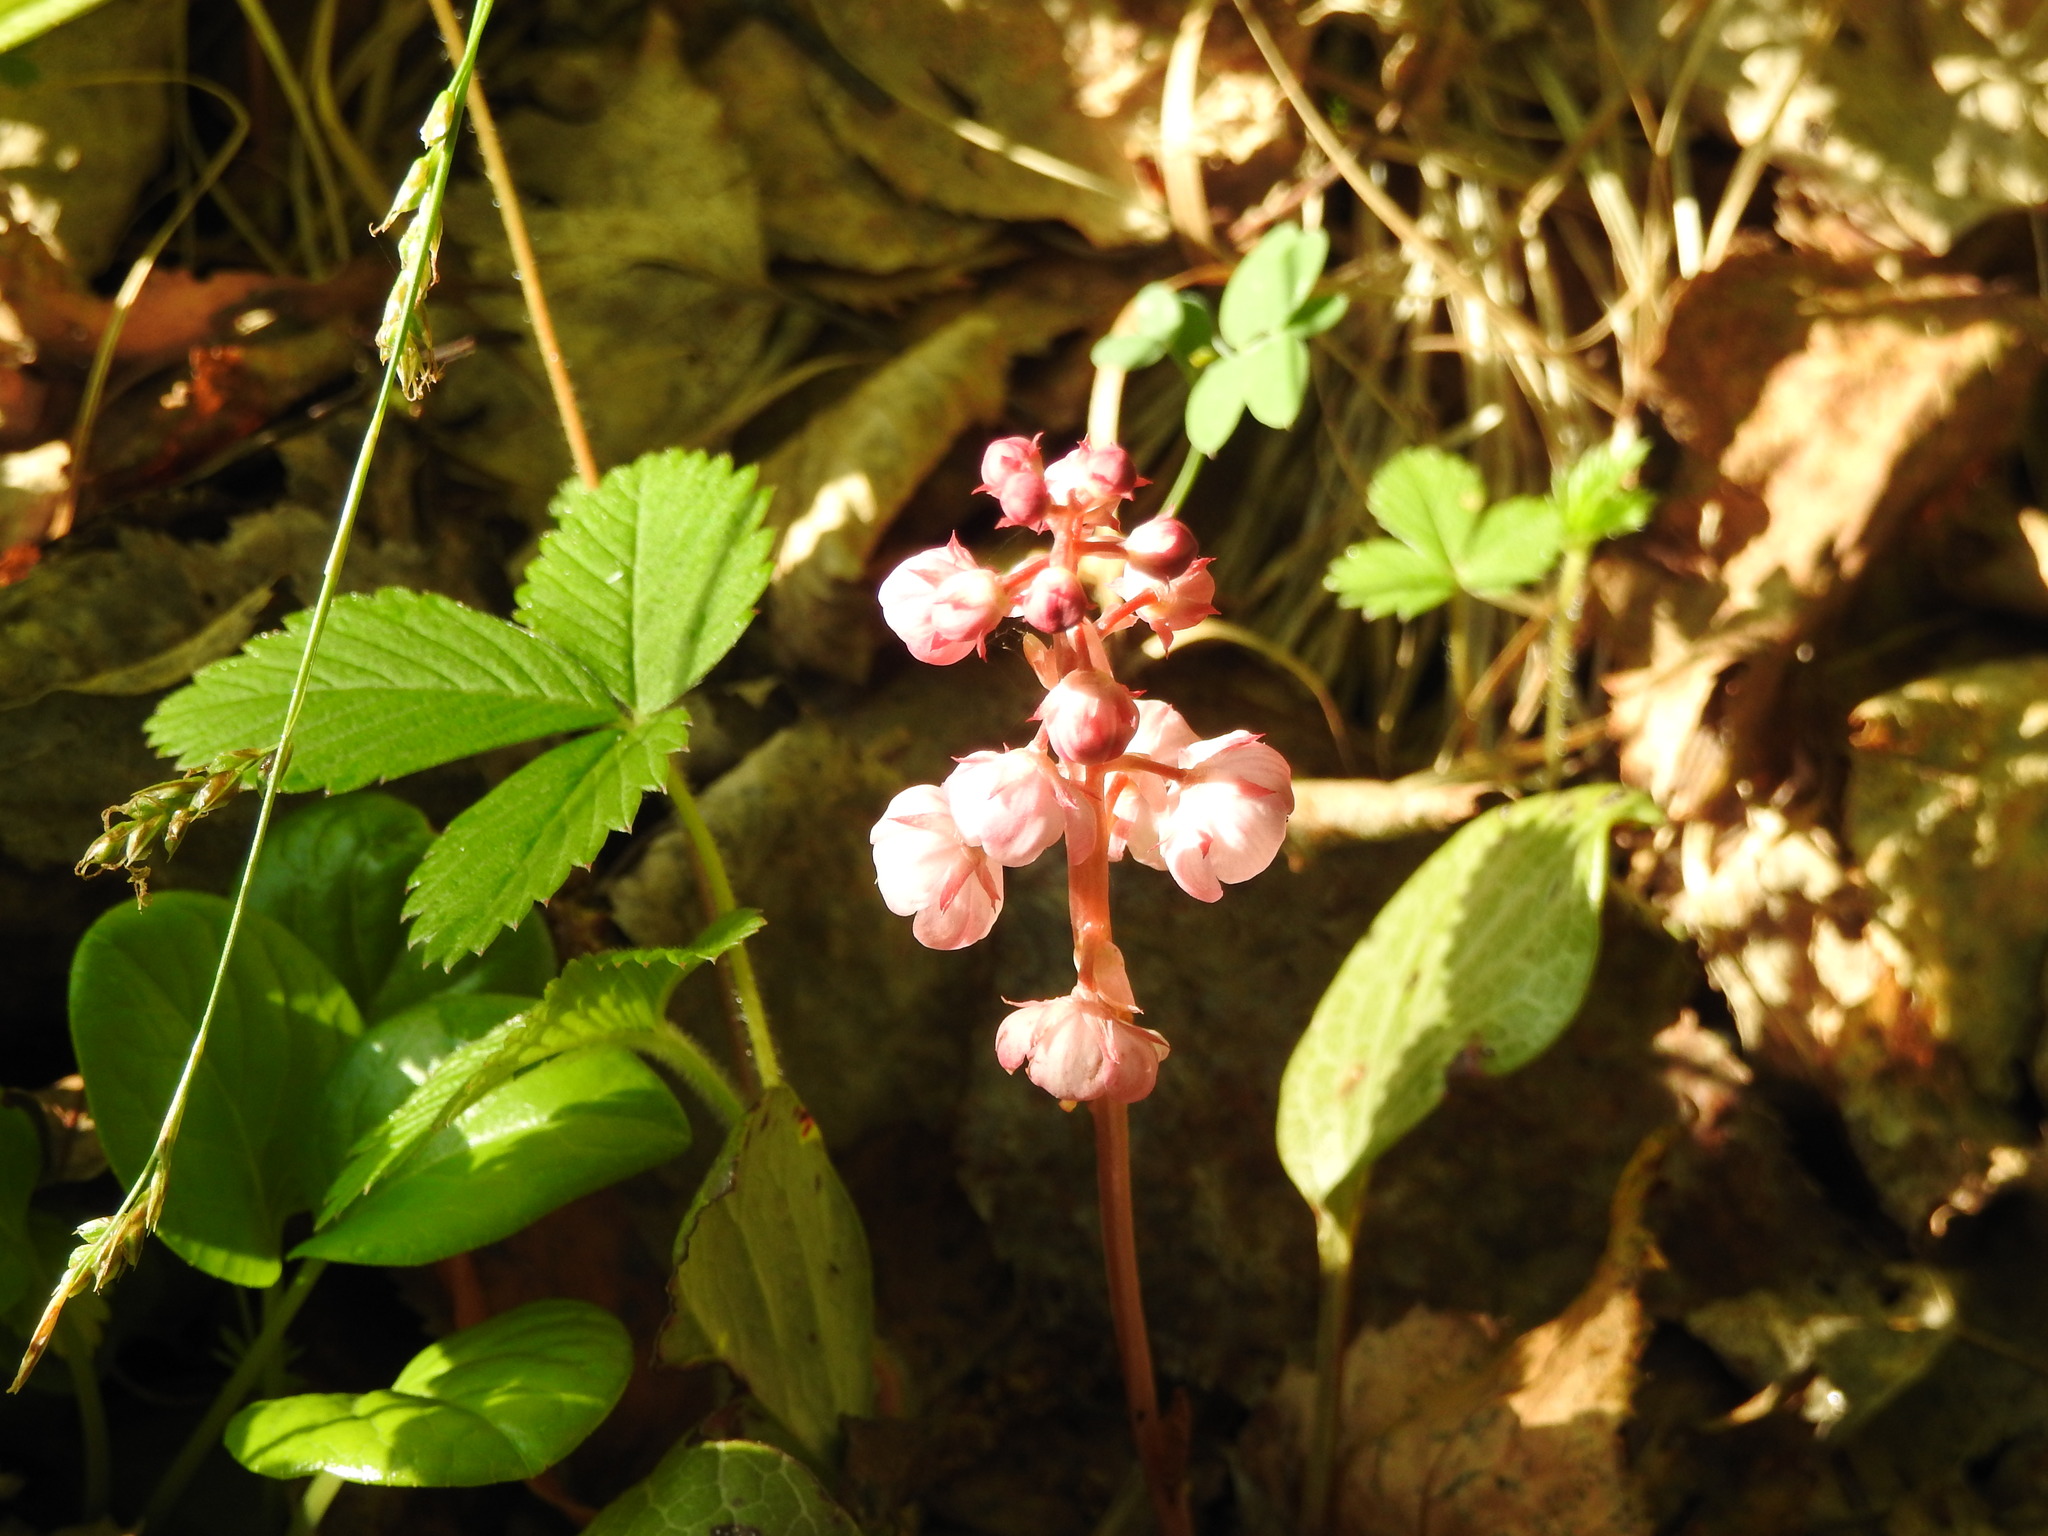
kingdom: Plantae
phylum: Tracheophyta
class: Magnoliopsida
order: Ericales
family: Ericaceae
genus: Pyrola
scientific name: Pyrola asarifolia
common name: Bog wintergreen
